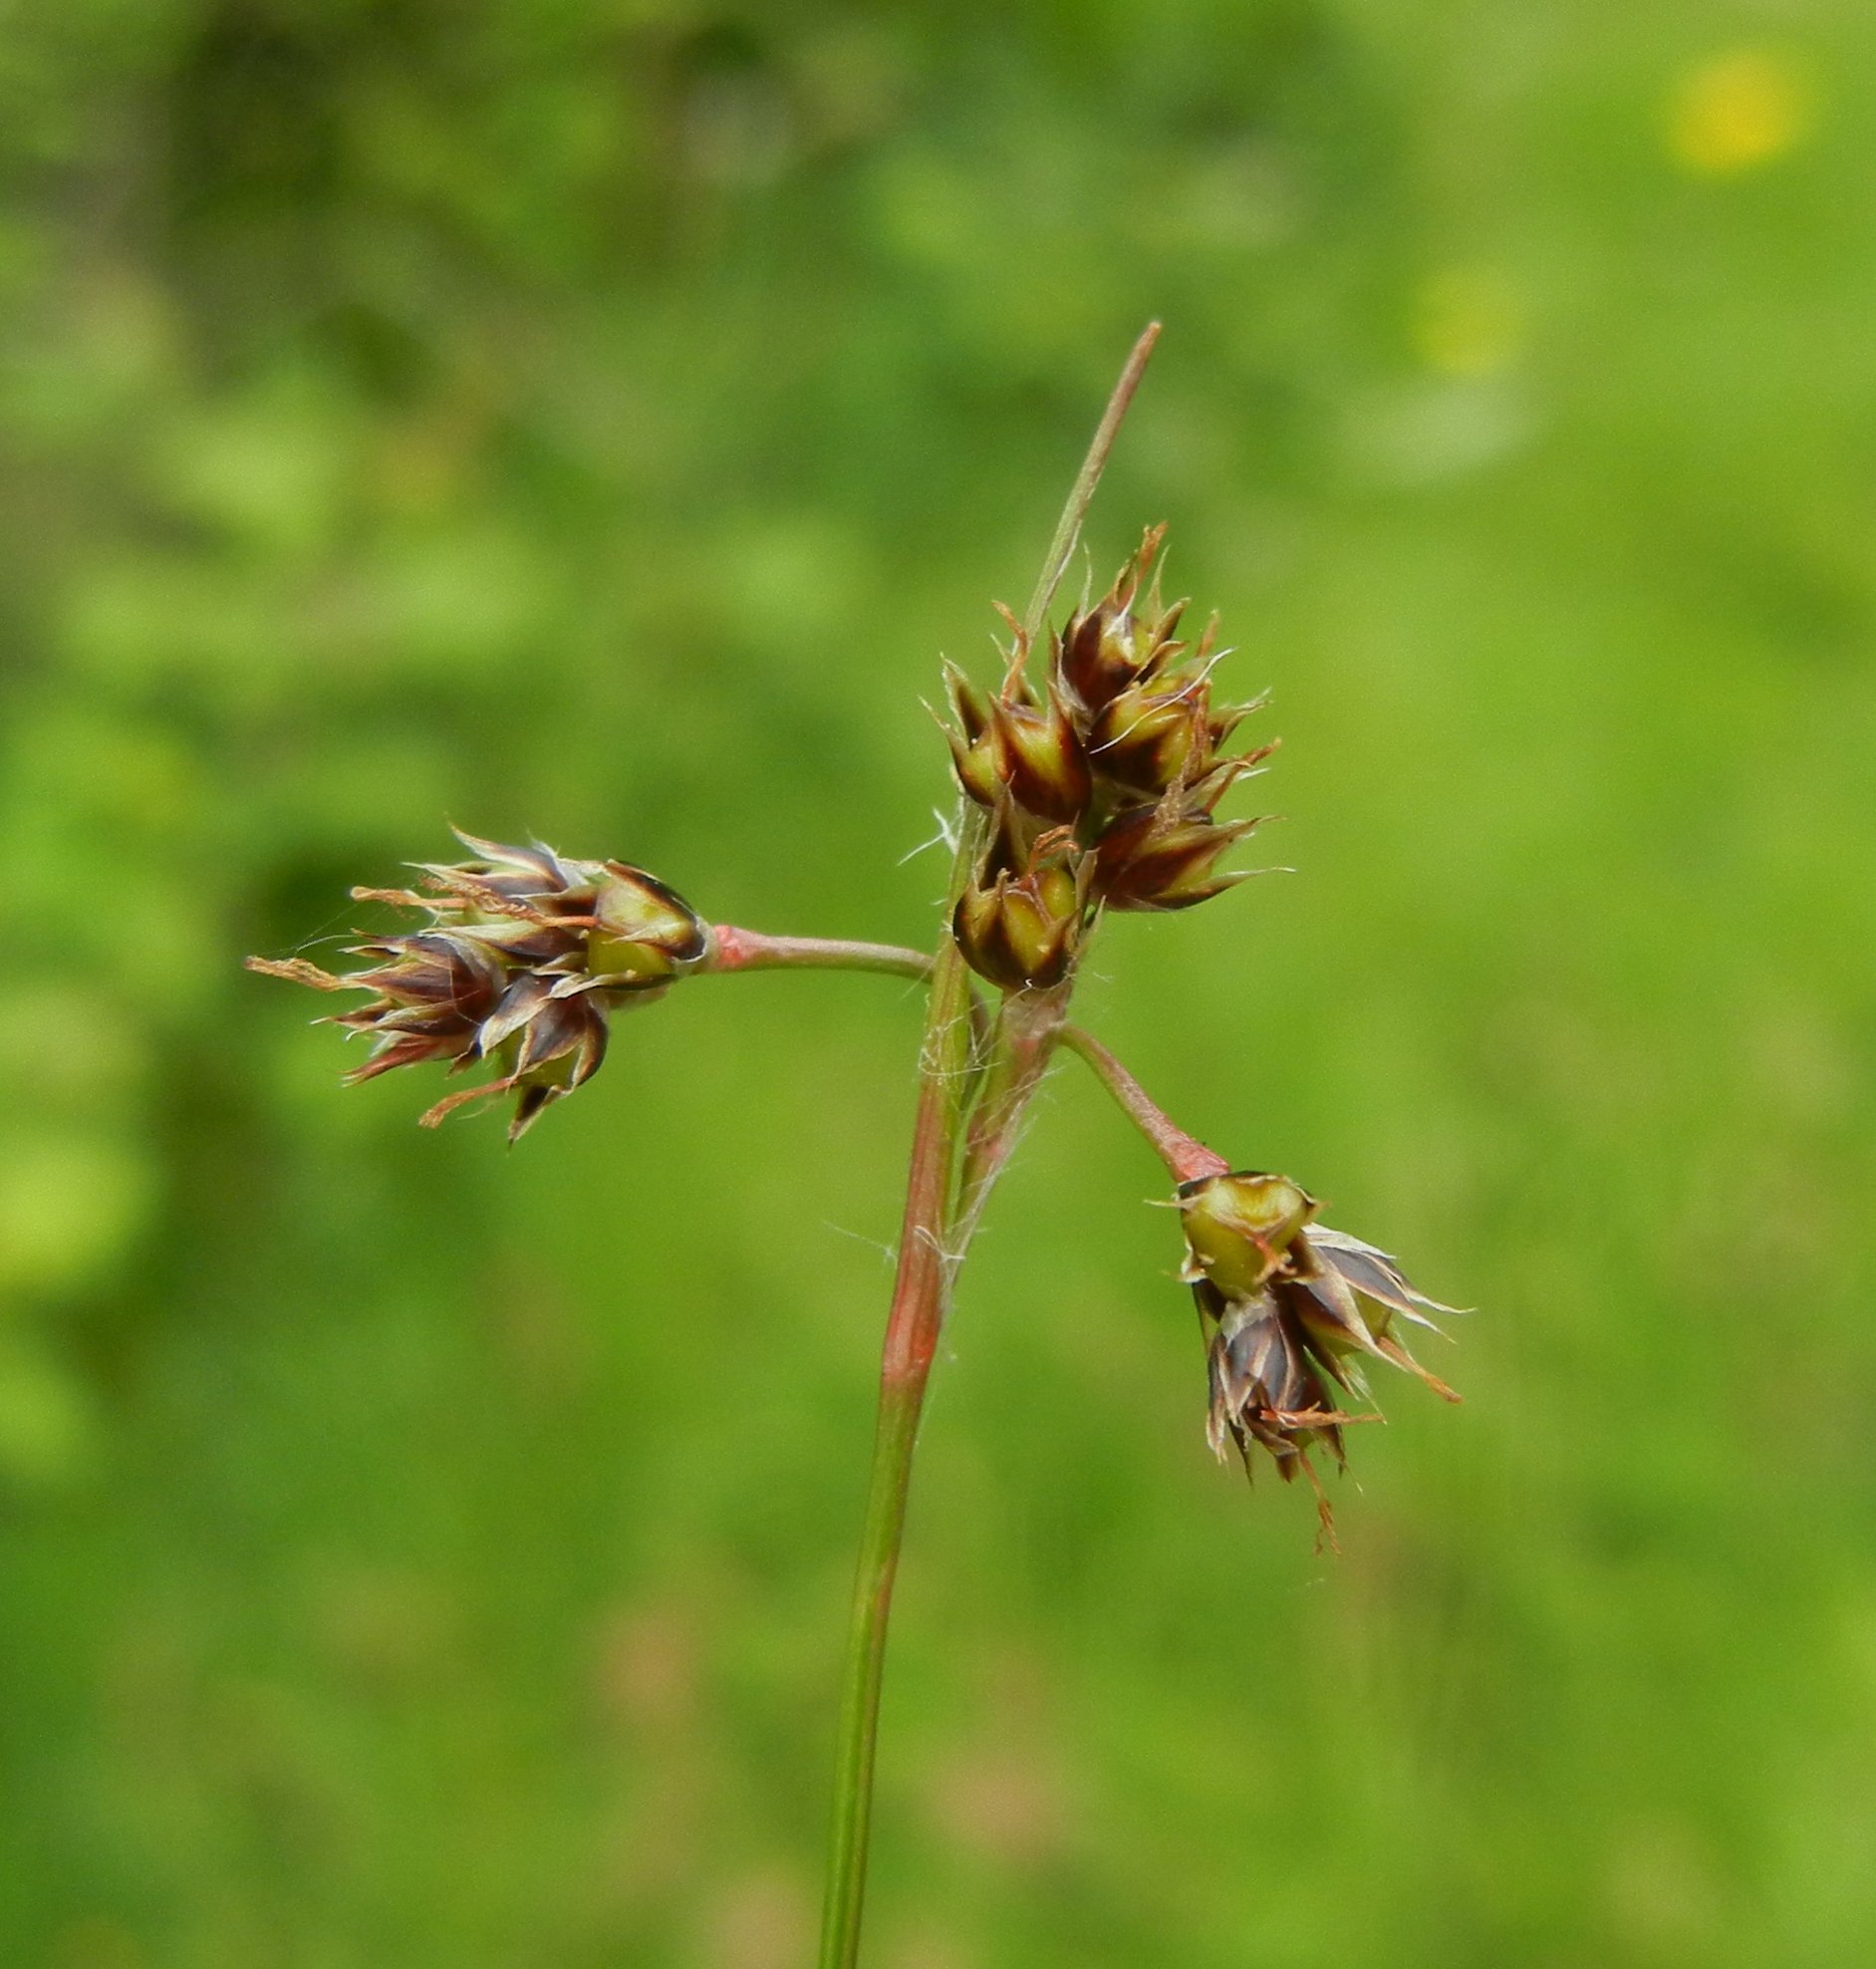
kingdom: Plantae
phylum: Tracheophyta
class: Liliopsida
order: Poales
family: Juncaceae
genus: Luzula
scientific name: Luzula campestris
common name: Field wood-rush
